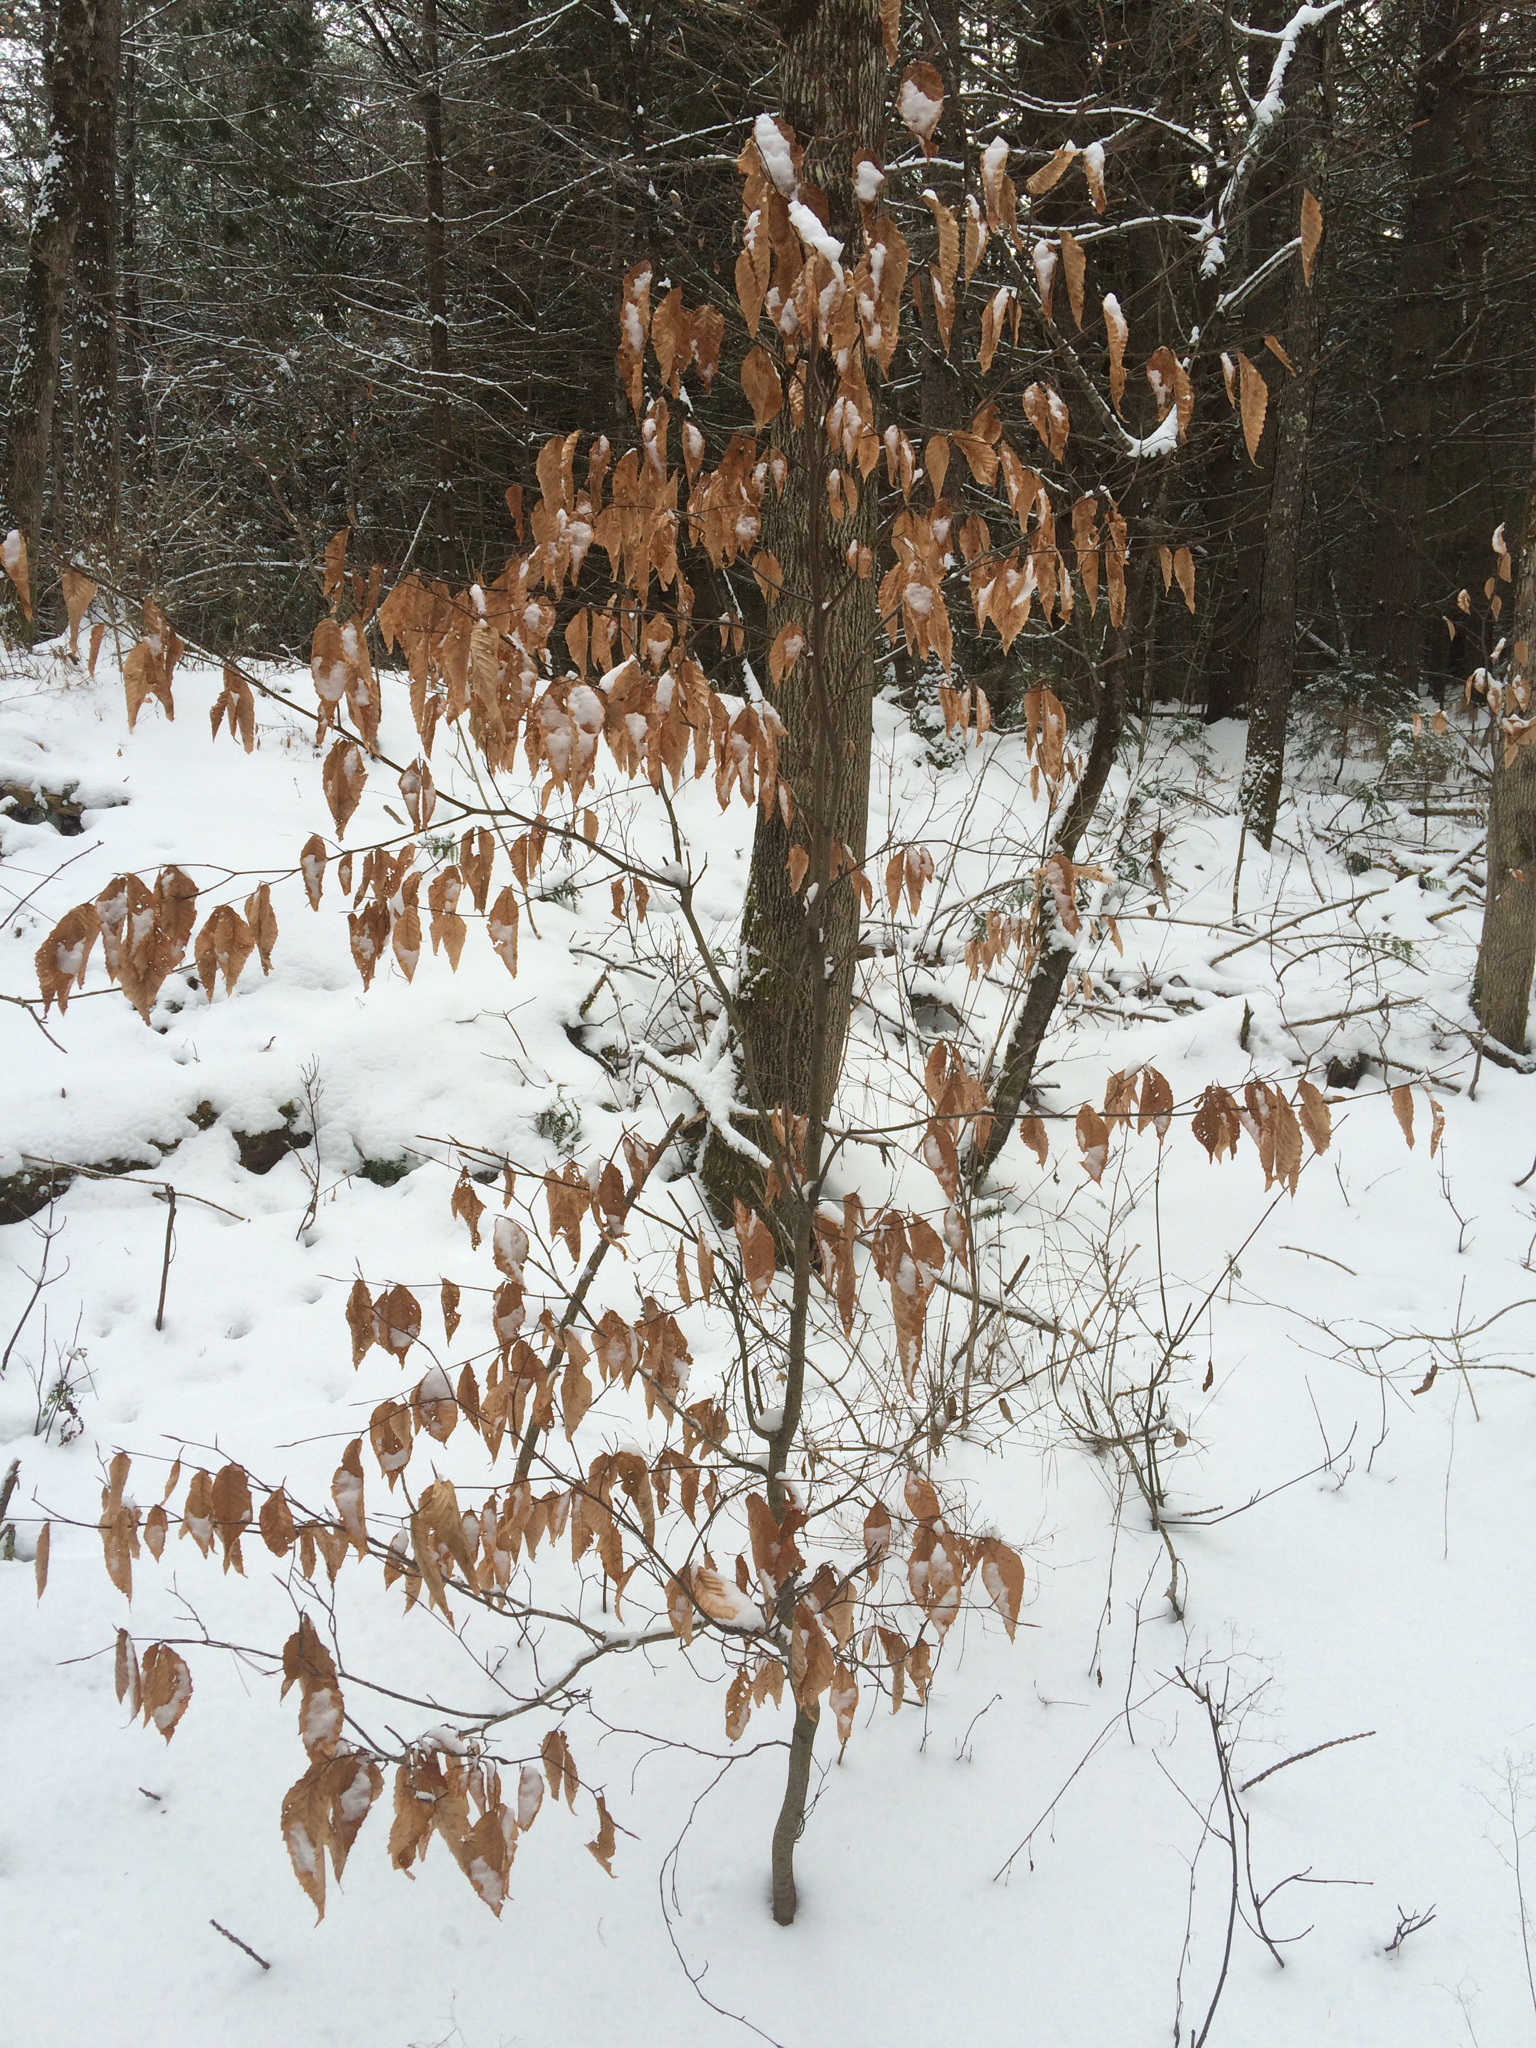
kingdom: Plantae
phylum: Tracheophyta
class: Magnoliopsida
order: Fagales
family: Fagaceae
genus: Fagus
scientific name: Fagus grandifolia
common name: American beech
